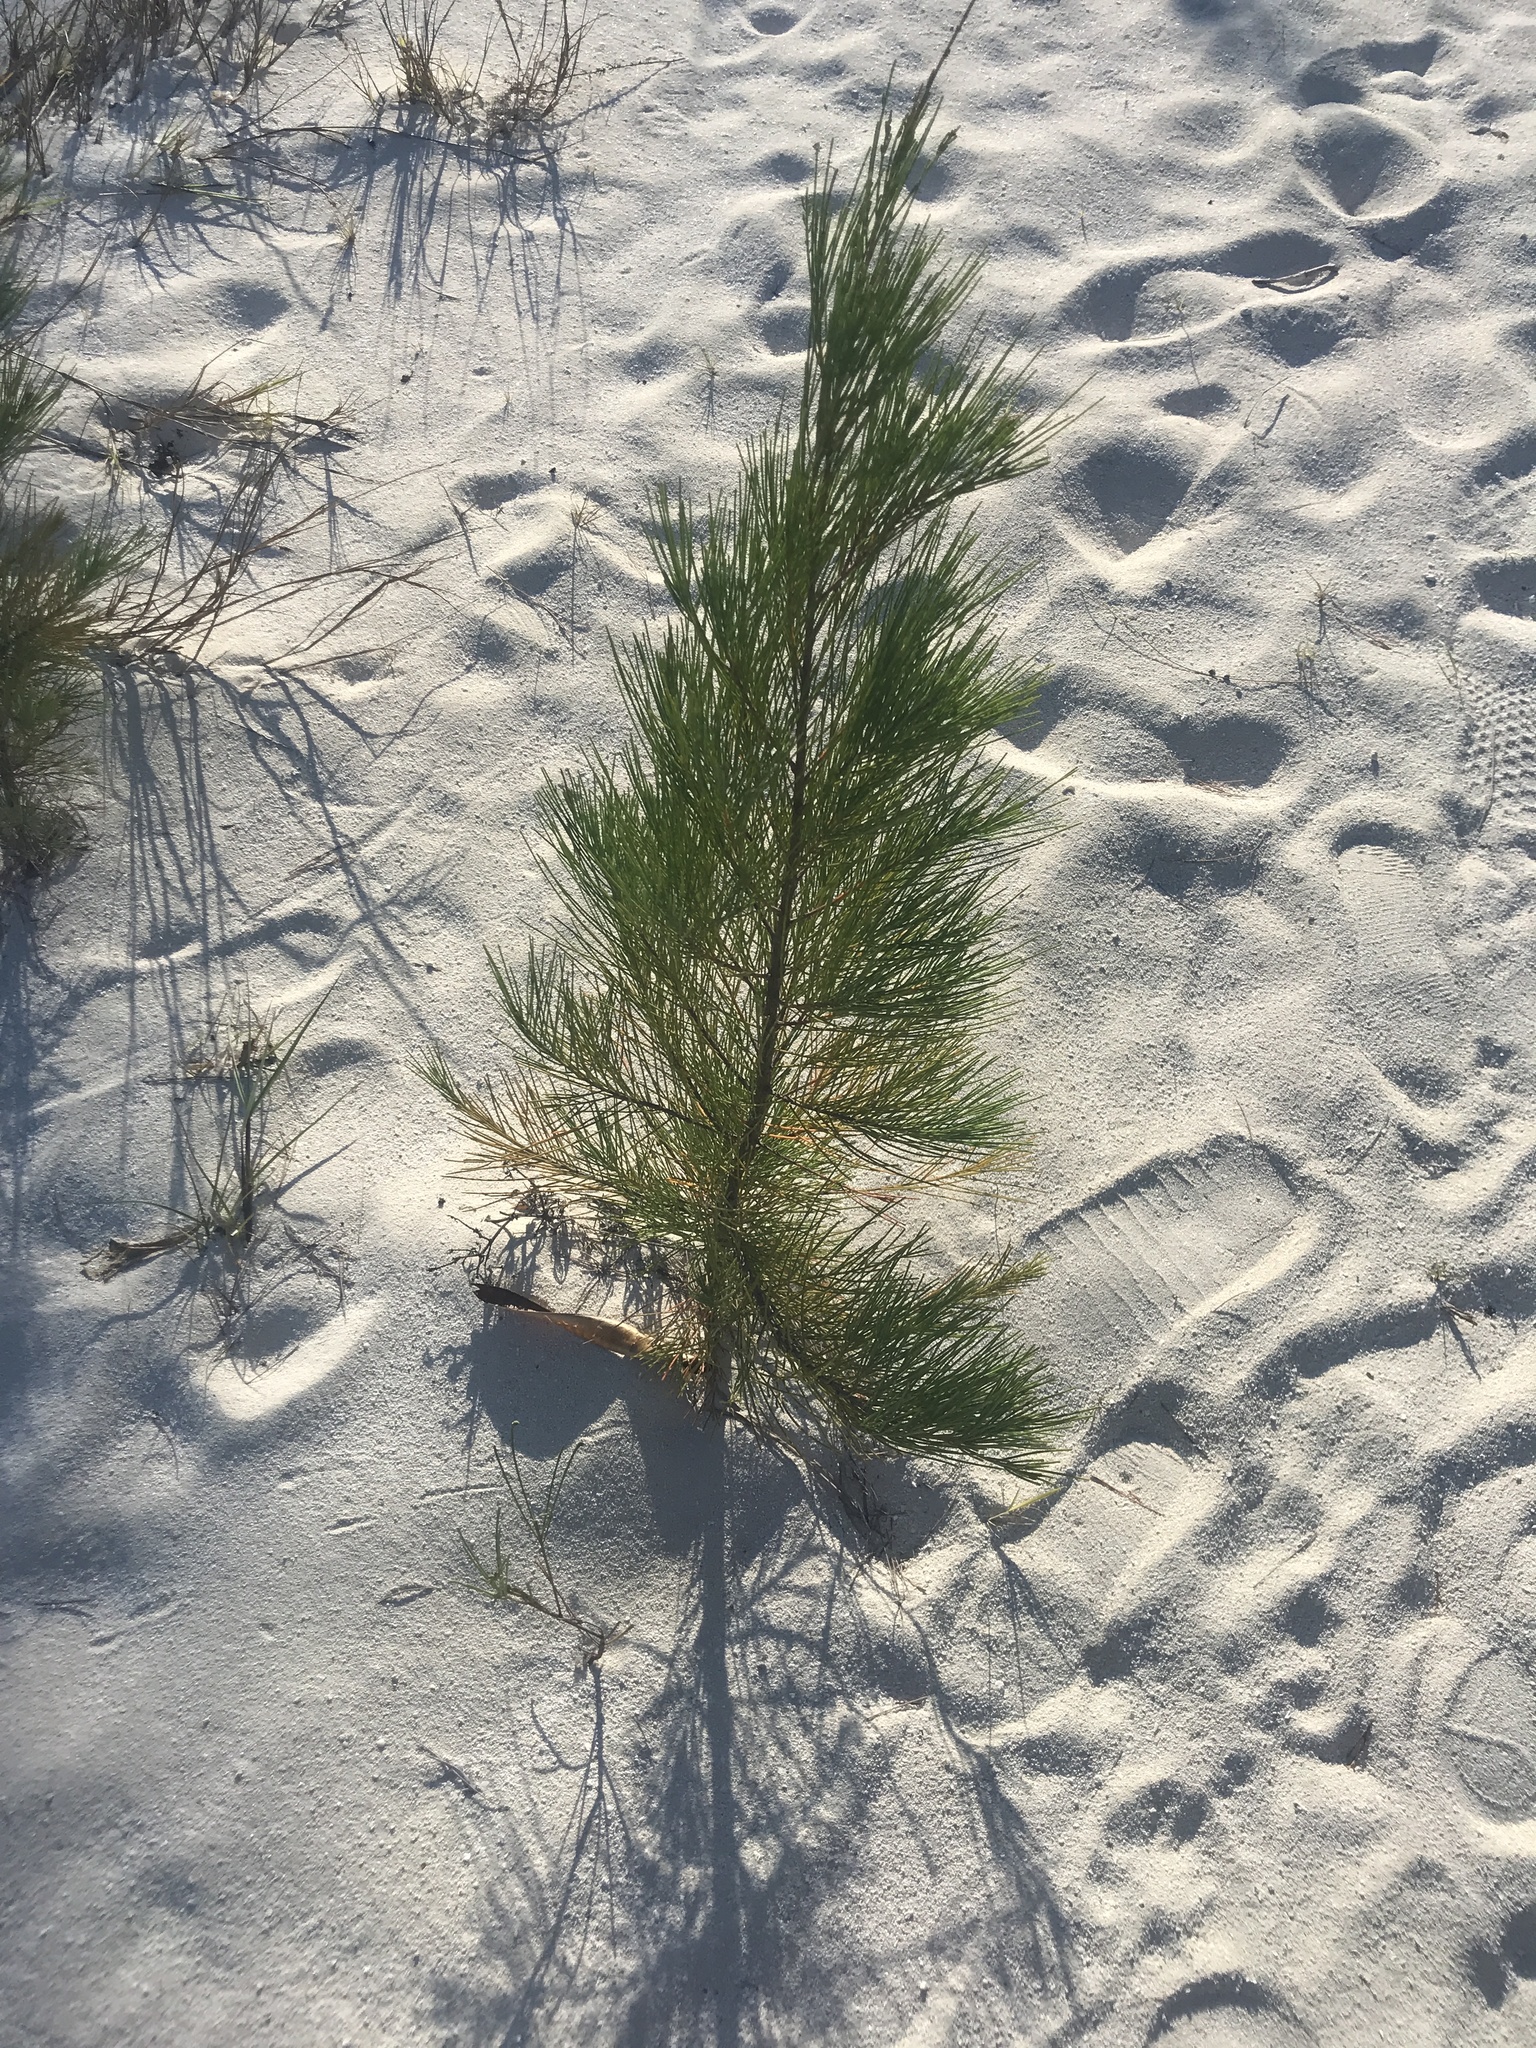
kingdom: Plantae
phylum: Tracheophyta
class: Magnoliopsida
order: Fagales
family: Casuarinaceae
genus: Casuarina
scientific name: Casuarina equisetifolia
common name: Beach sheoak
